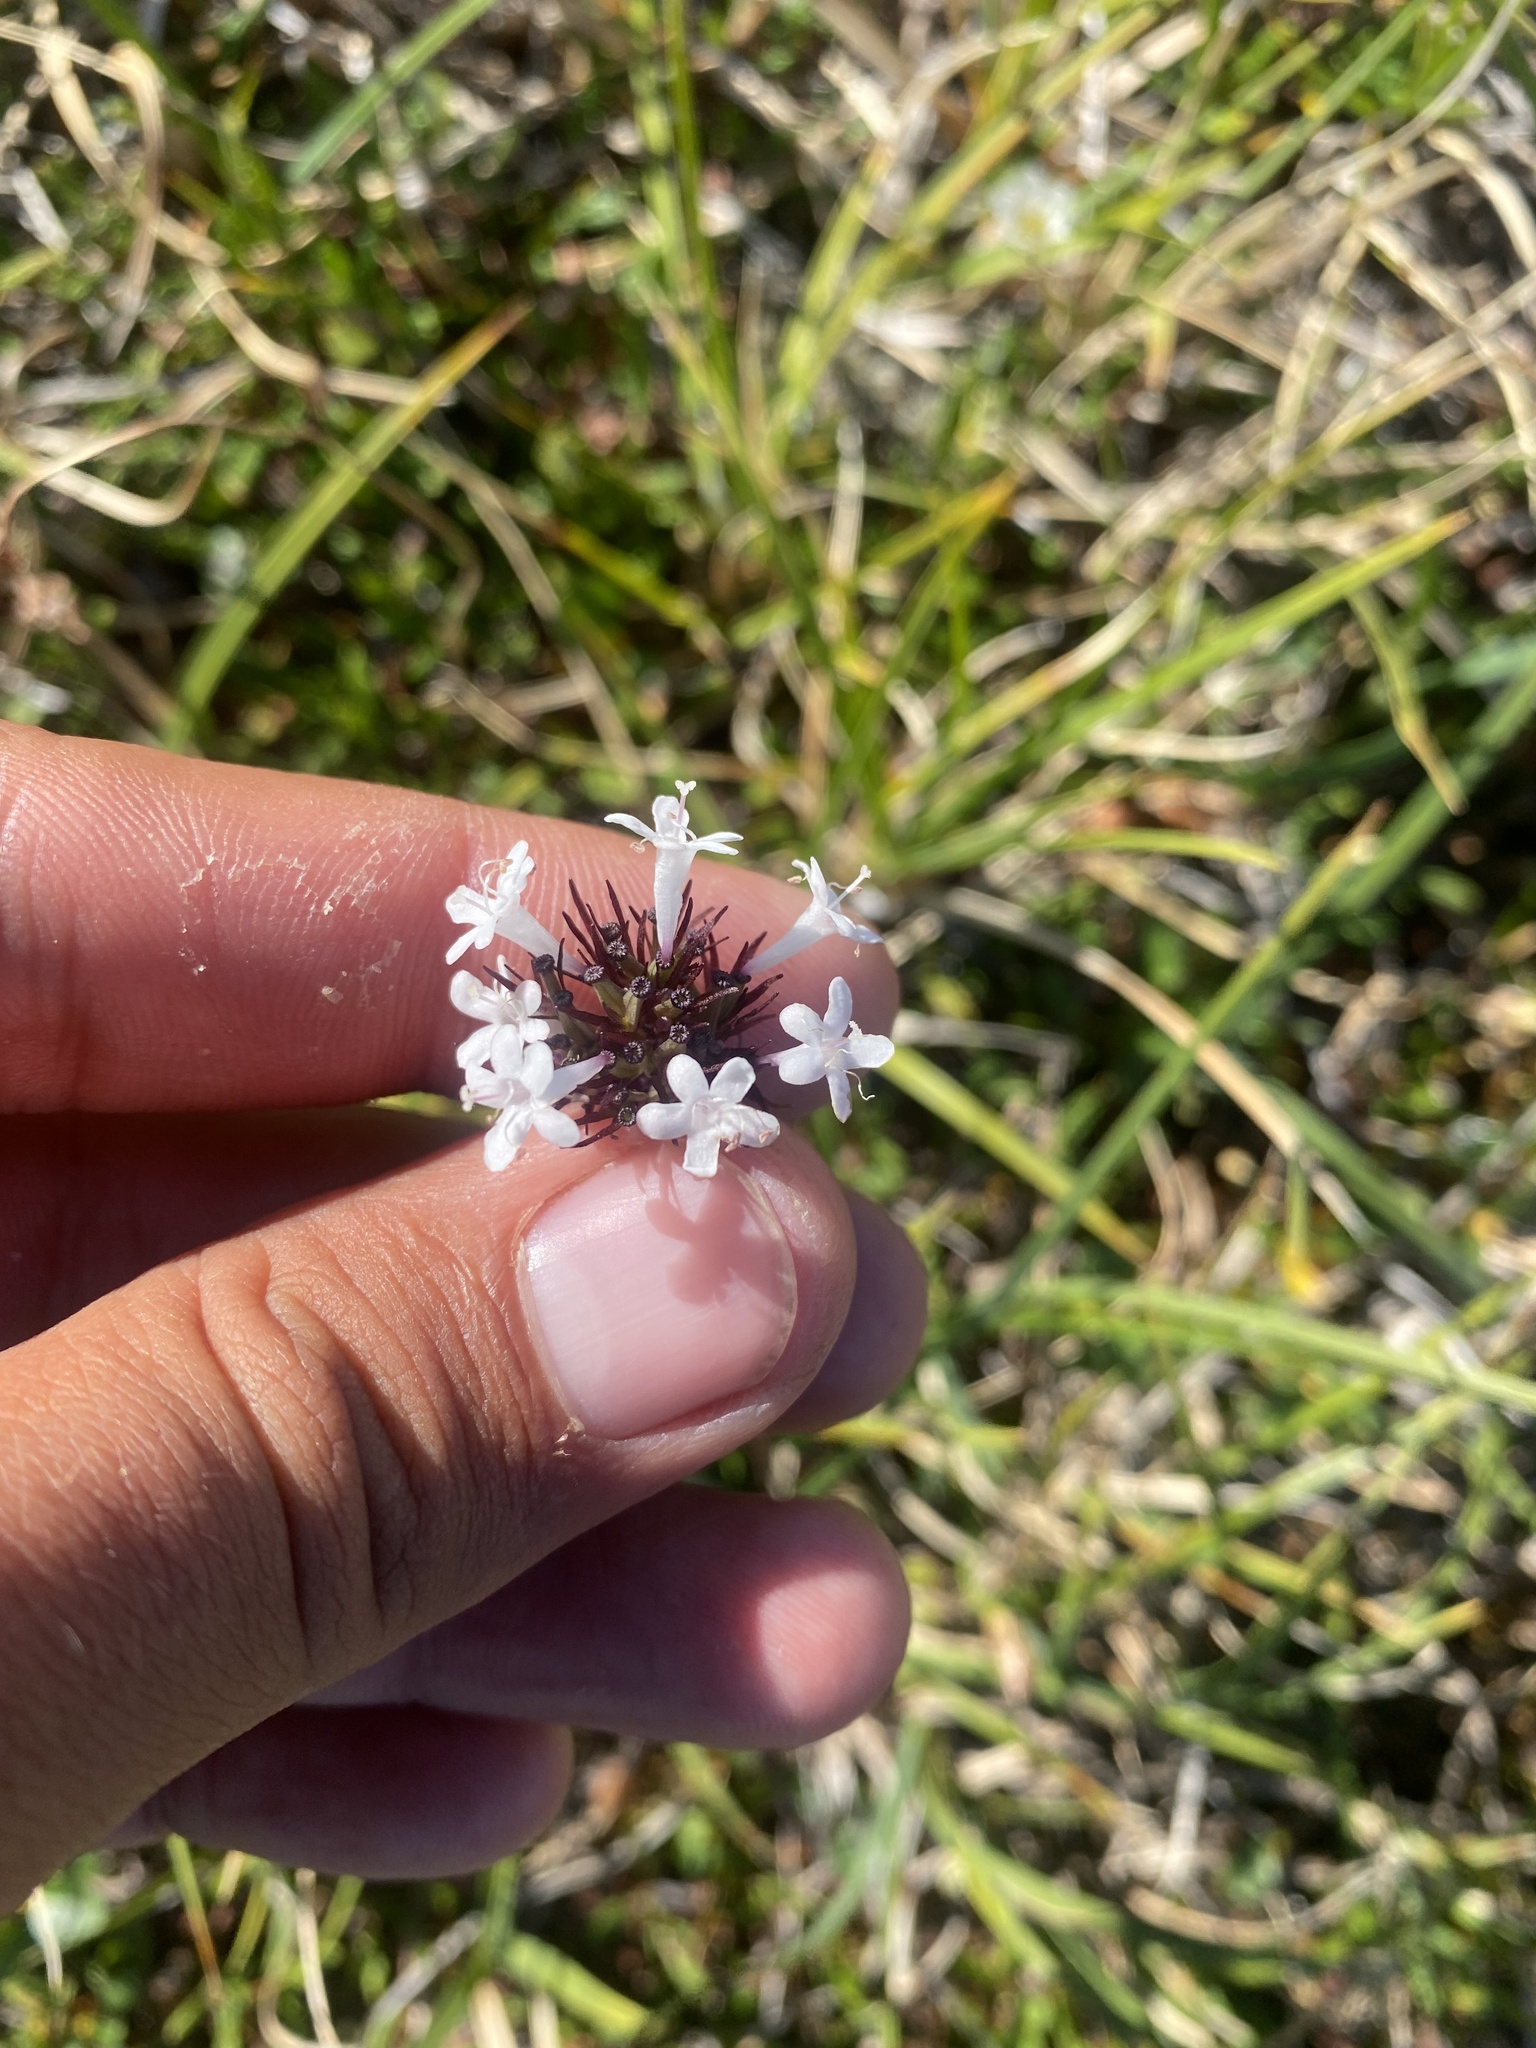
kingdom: Plantae
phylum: Tracheophyta
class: Magnoliopsida
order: Dipsacales
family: Caprifoliaceae
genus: Valeriana
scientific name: Valeriana capitata
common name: Capitate valerian
